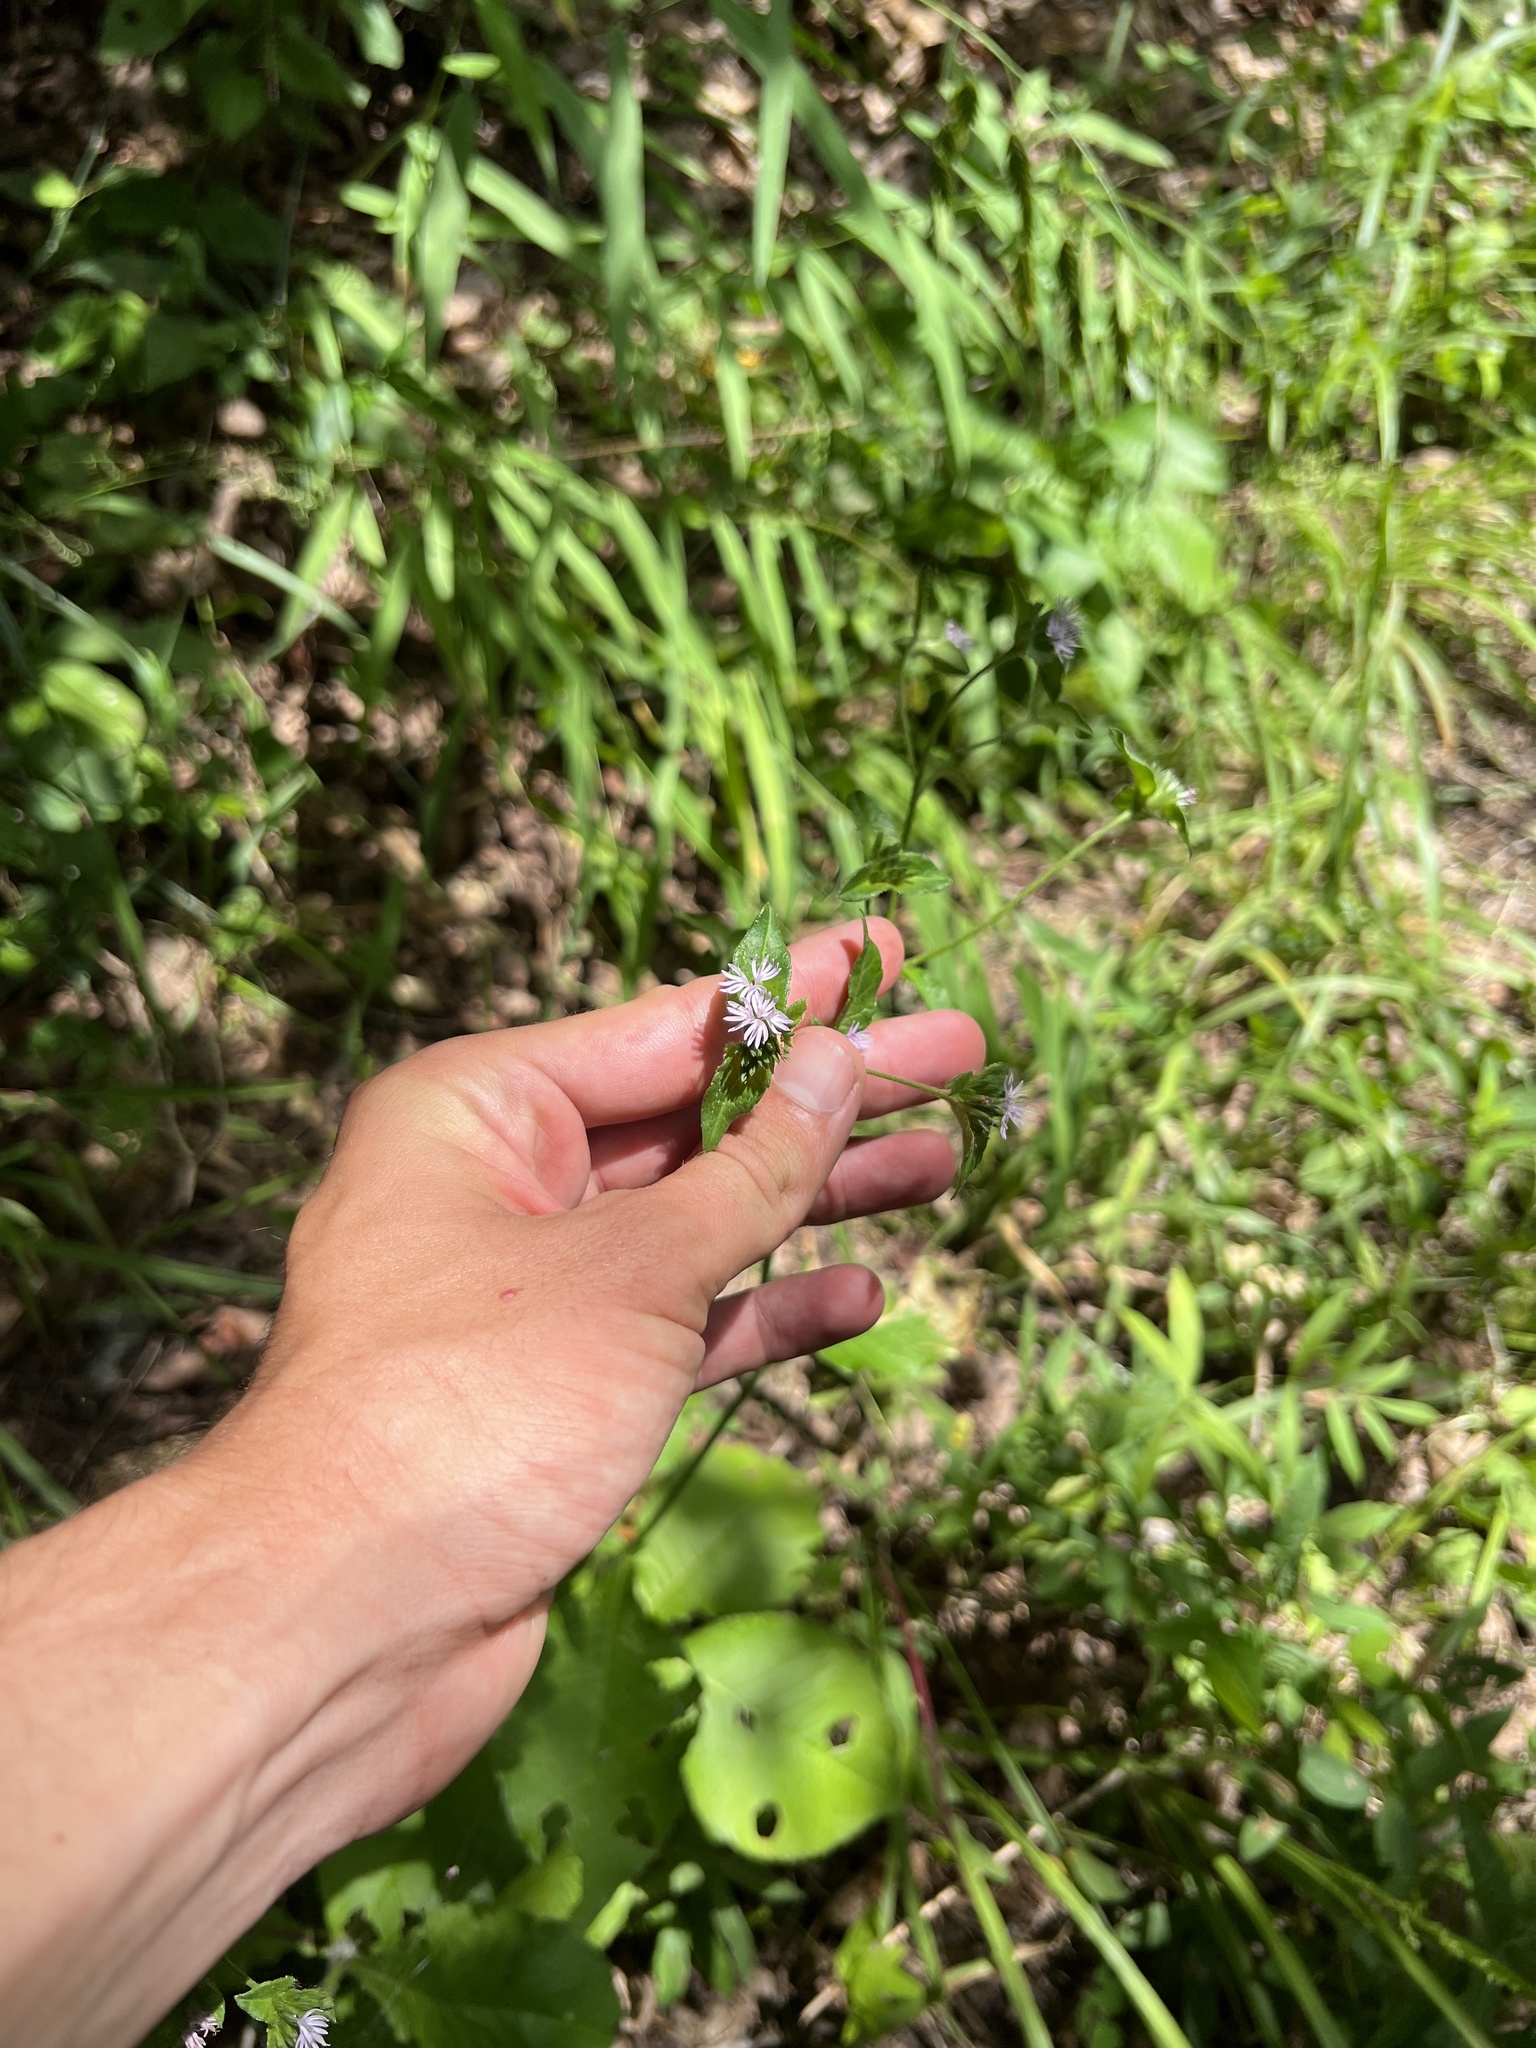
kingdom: Plantae
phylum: Tracheophyta
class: Magnoliopsida
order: Asterales
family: Asteraceae
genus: Elephantopus
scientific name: Elephantopus carolinianus
